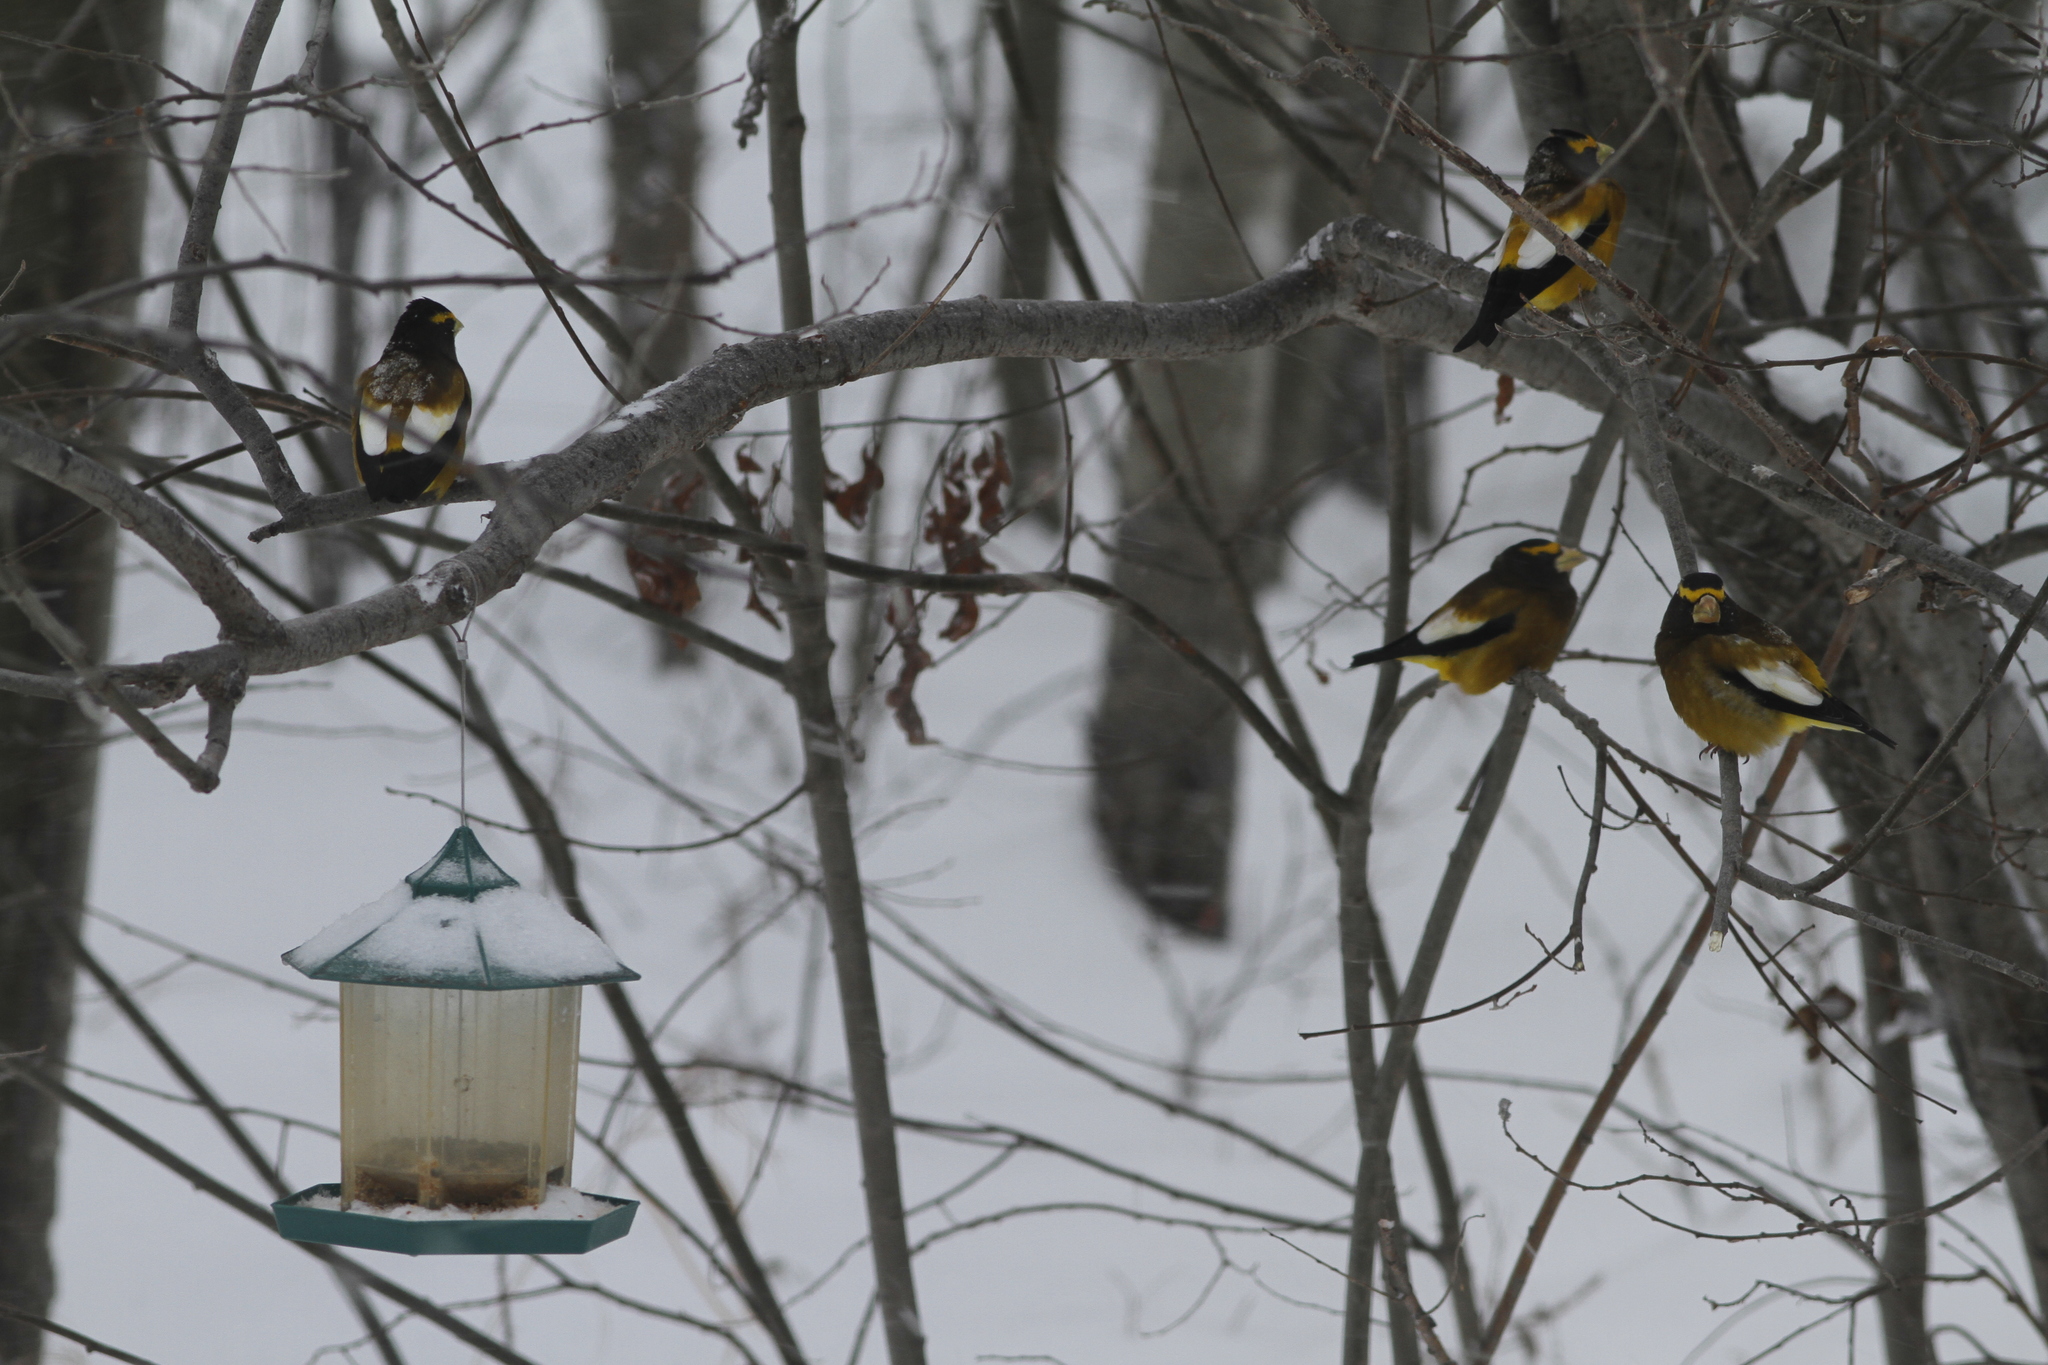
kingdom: Animalia
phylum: Chordata
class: Aves
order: Passeriformes
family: Fringillidae
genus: Hesperiphona
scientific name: Hesperiphona vespertina
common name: Evening grosbeak
